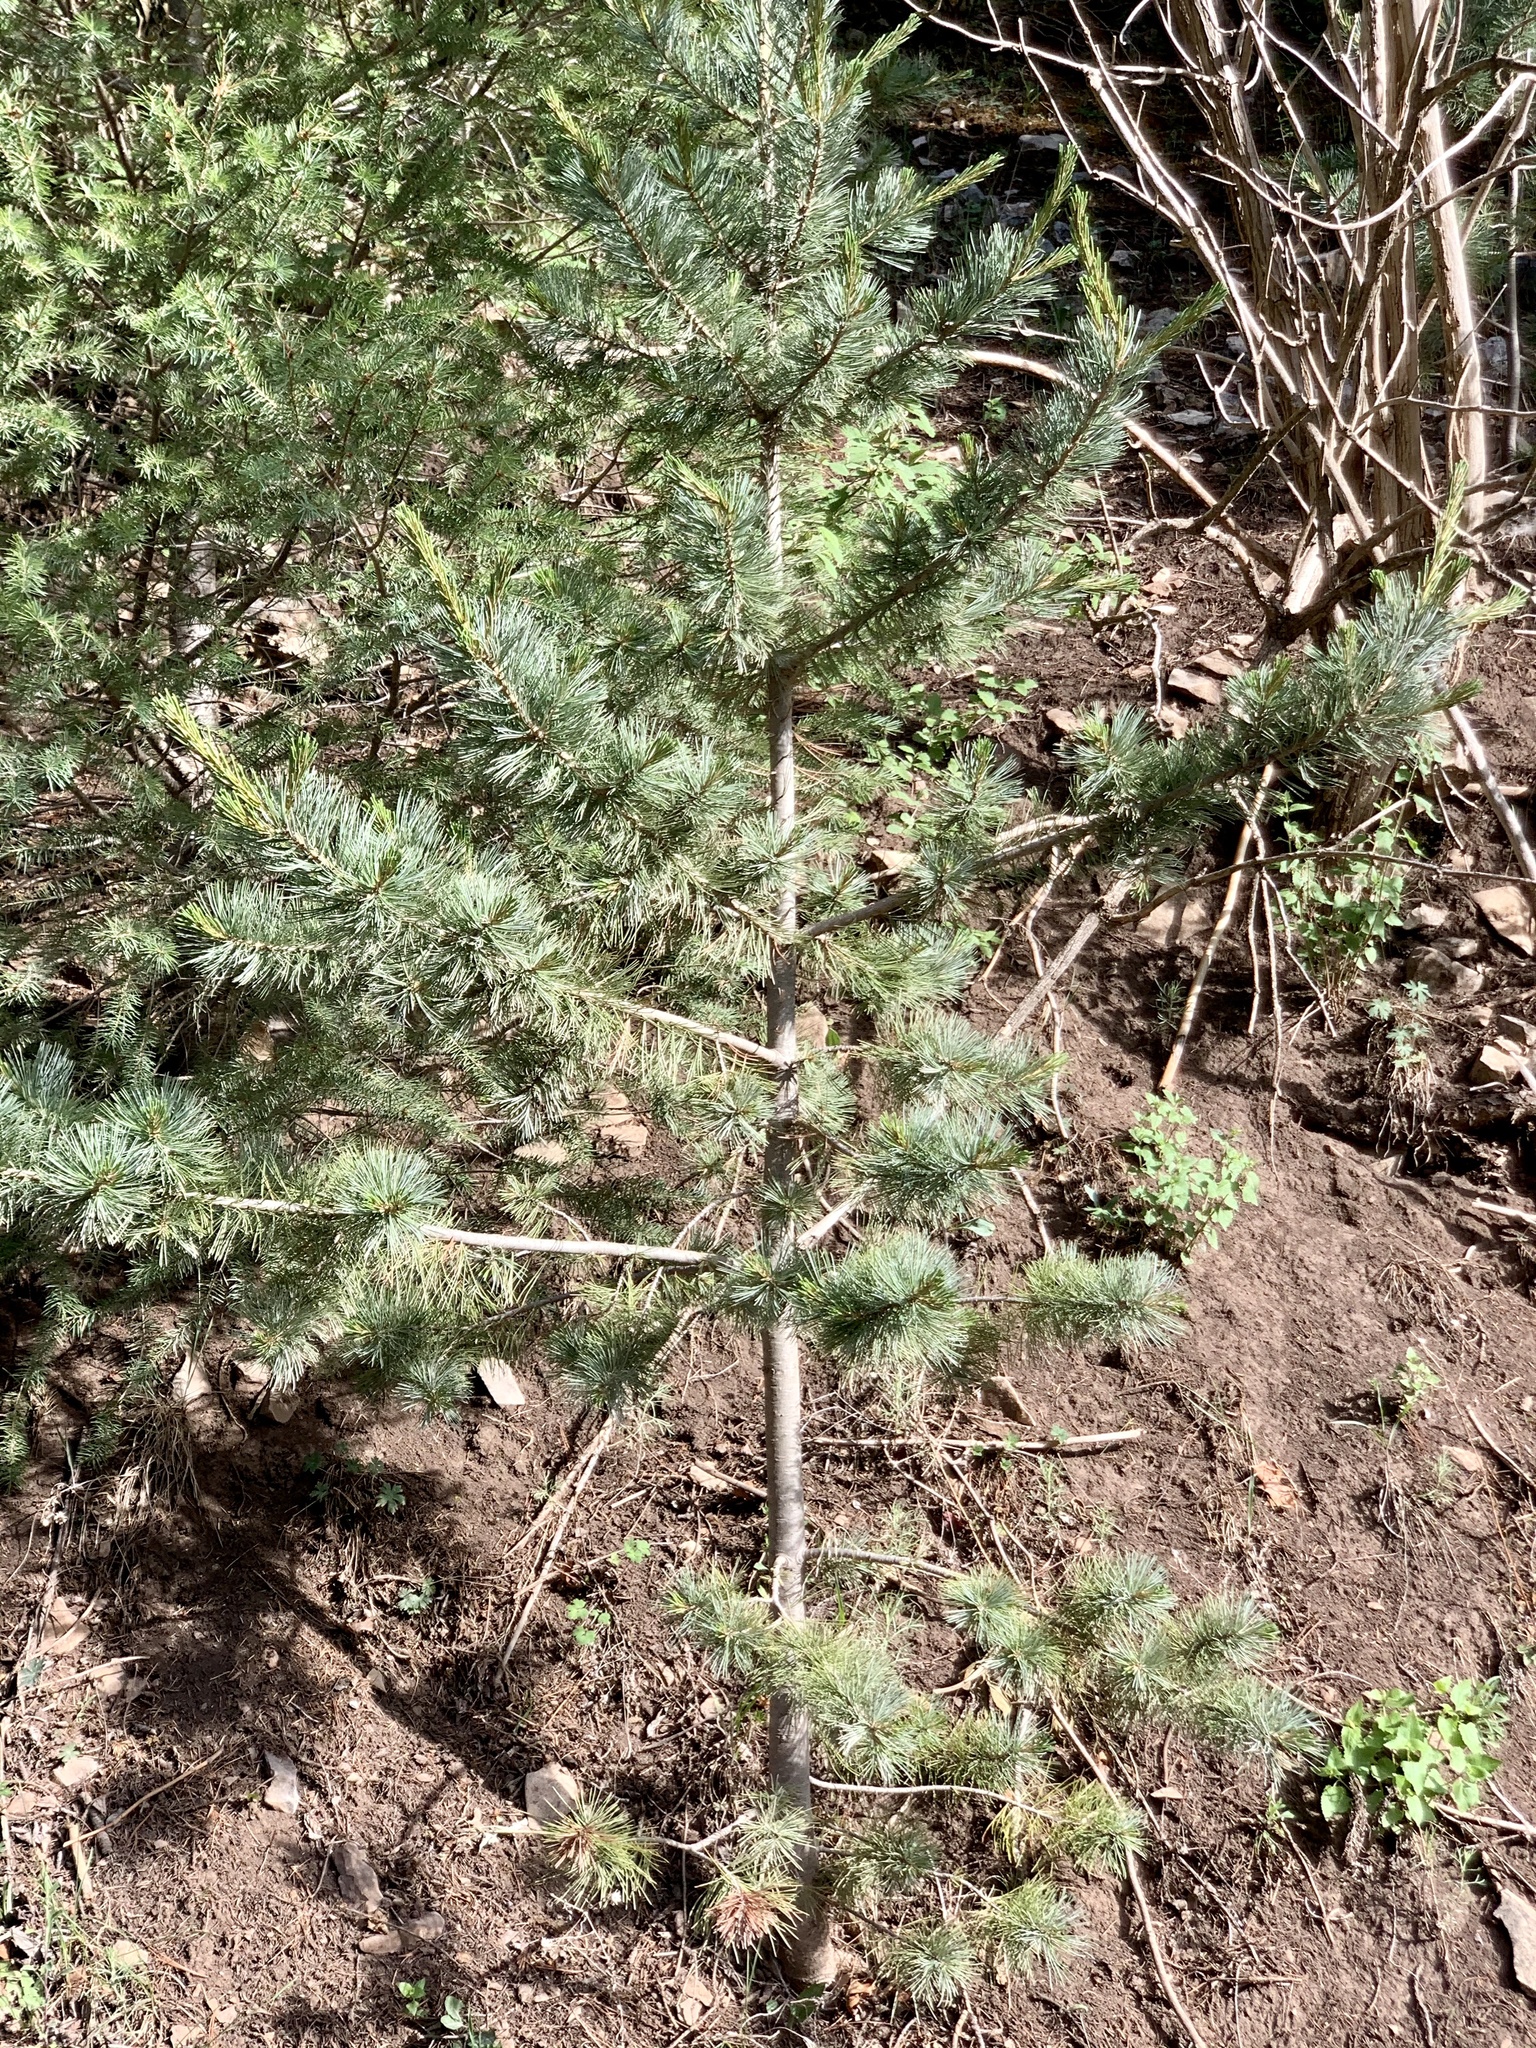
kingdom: Plantae
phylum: Tracheophyta
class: Pinopsida
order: Pinales
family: Pinaceae
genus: Pinus
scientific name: Pinus strobiformis
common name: Southwestern white pine
